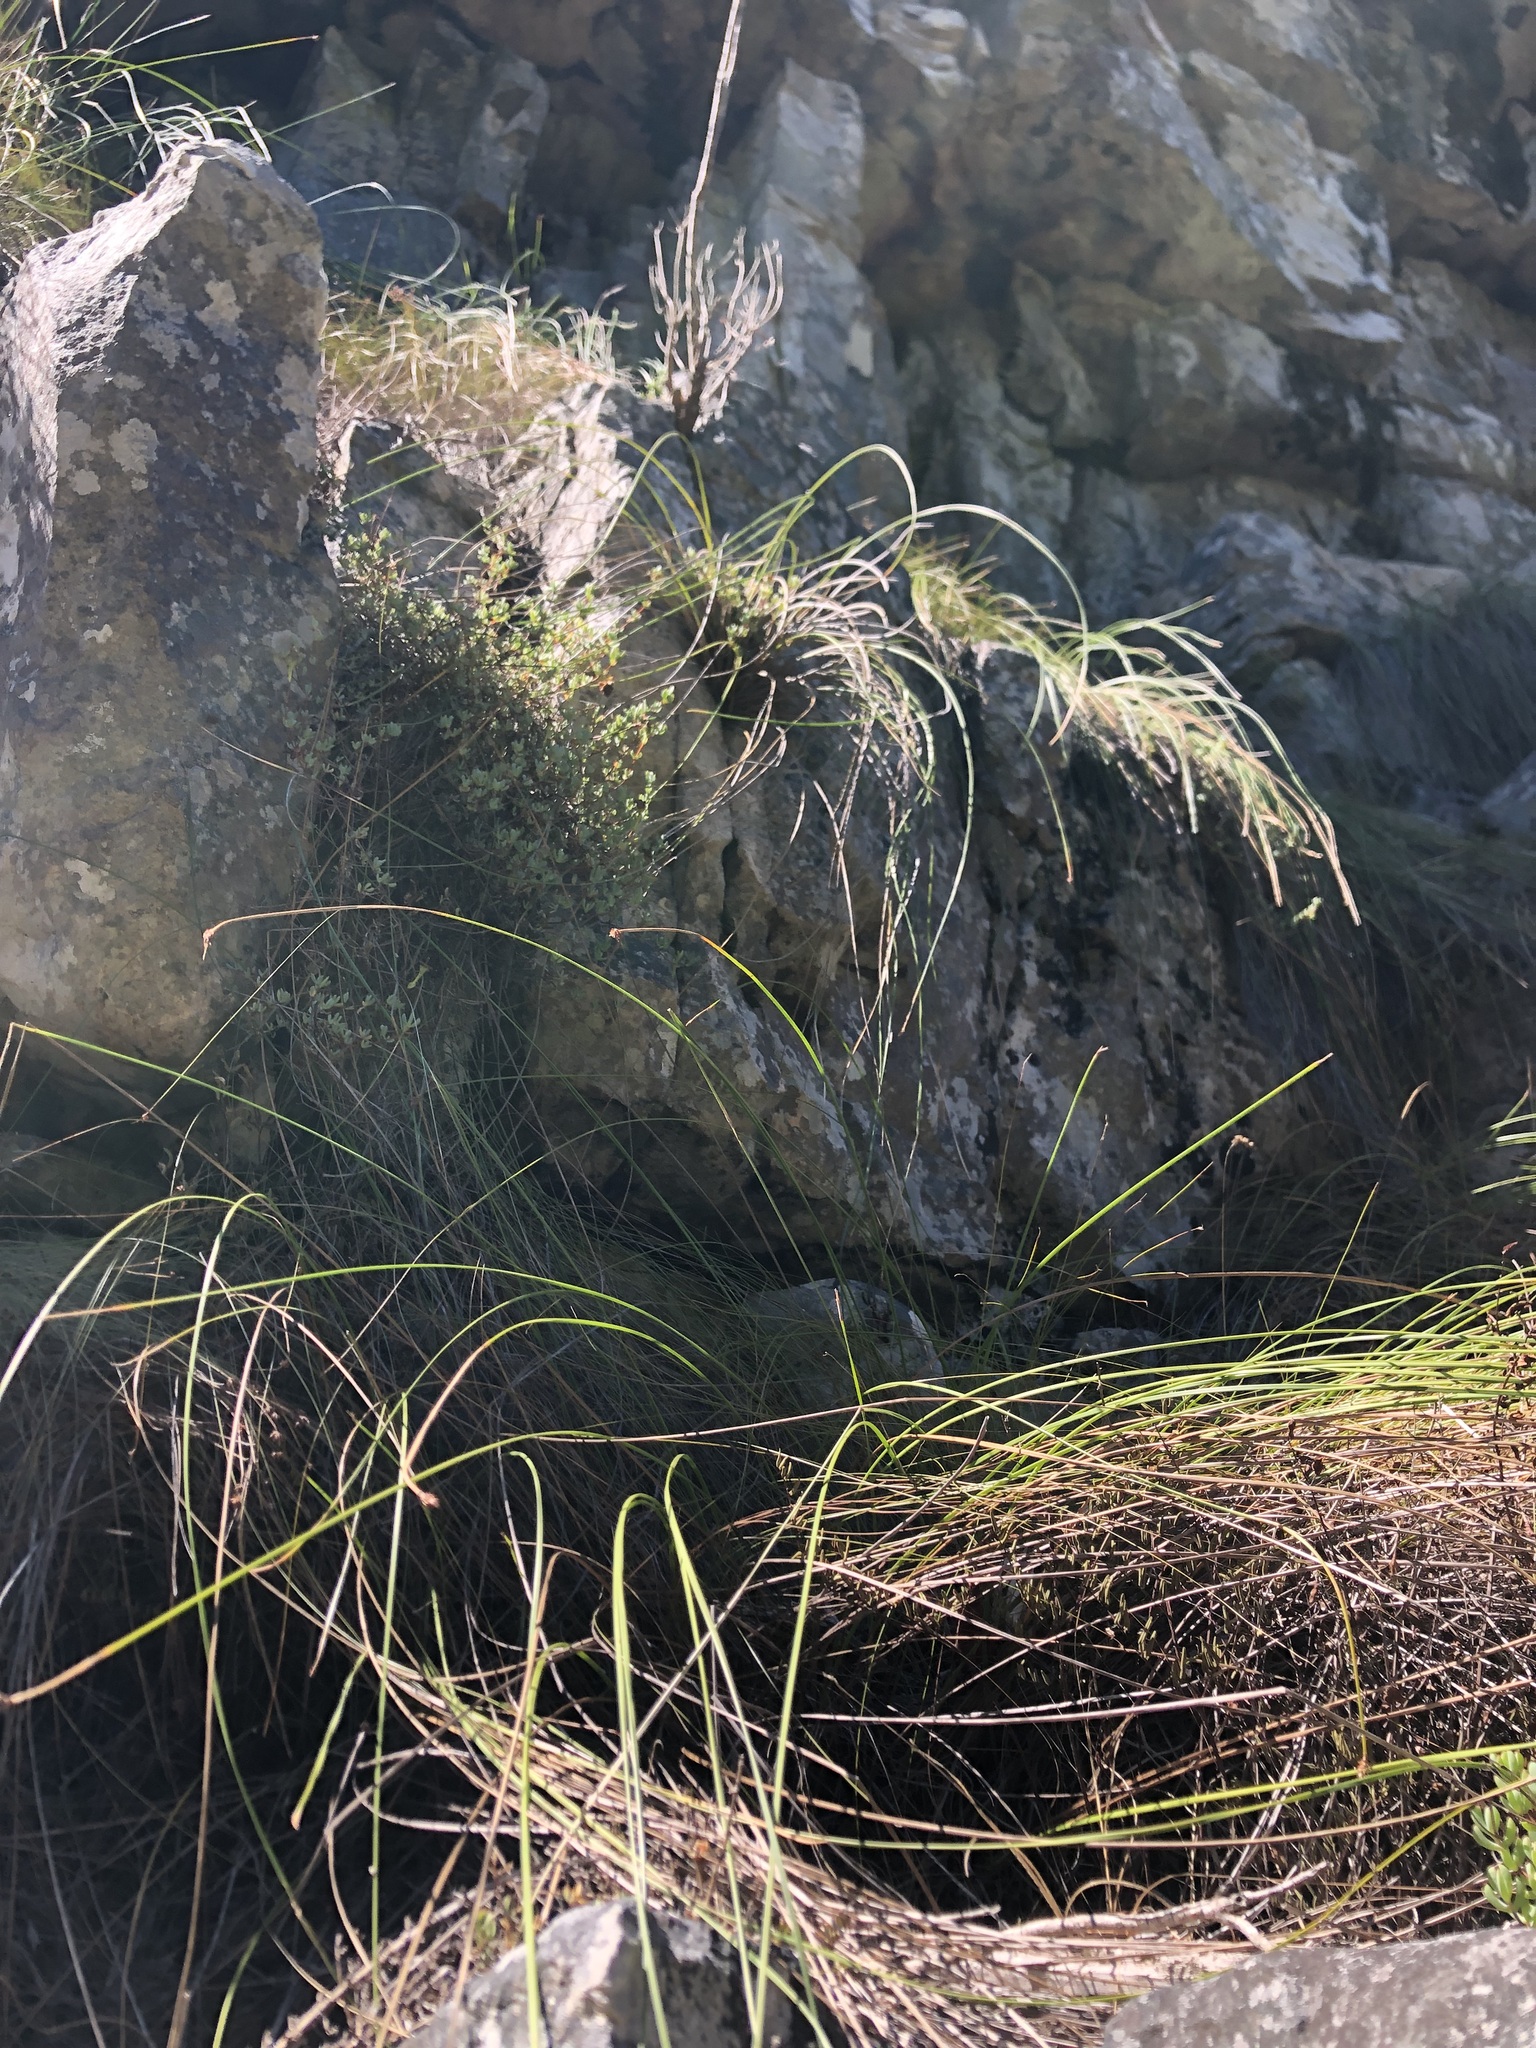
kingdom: Plantae
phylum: Tracheophyta
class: Liliopsida
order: Poales
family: Cyperaceae
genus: Ficinia
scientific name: Ficinia brevifolia
